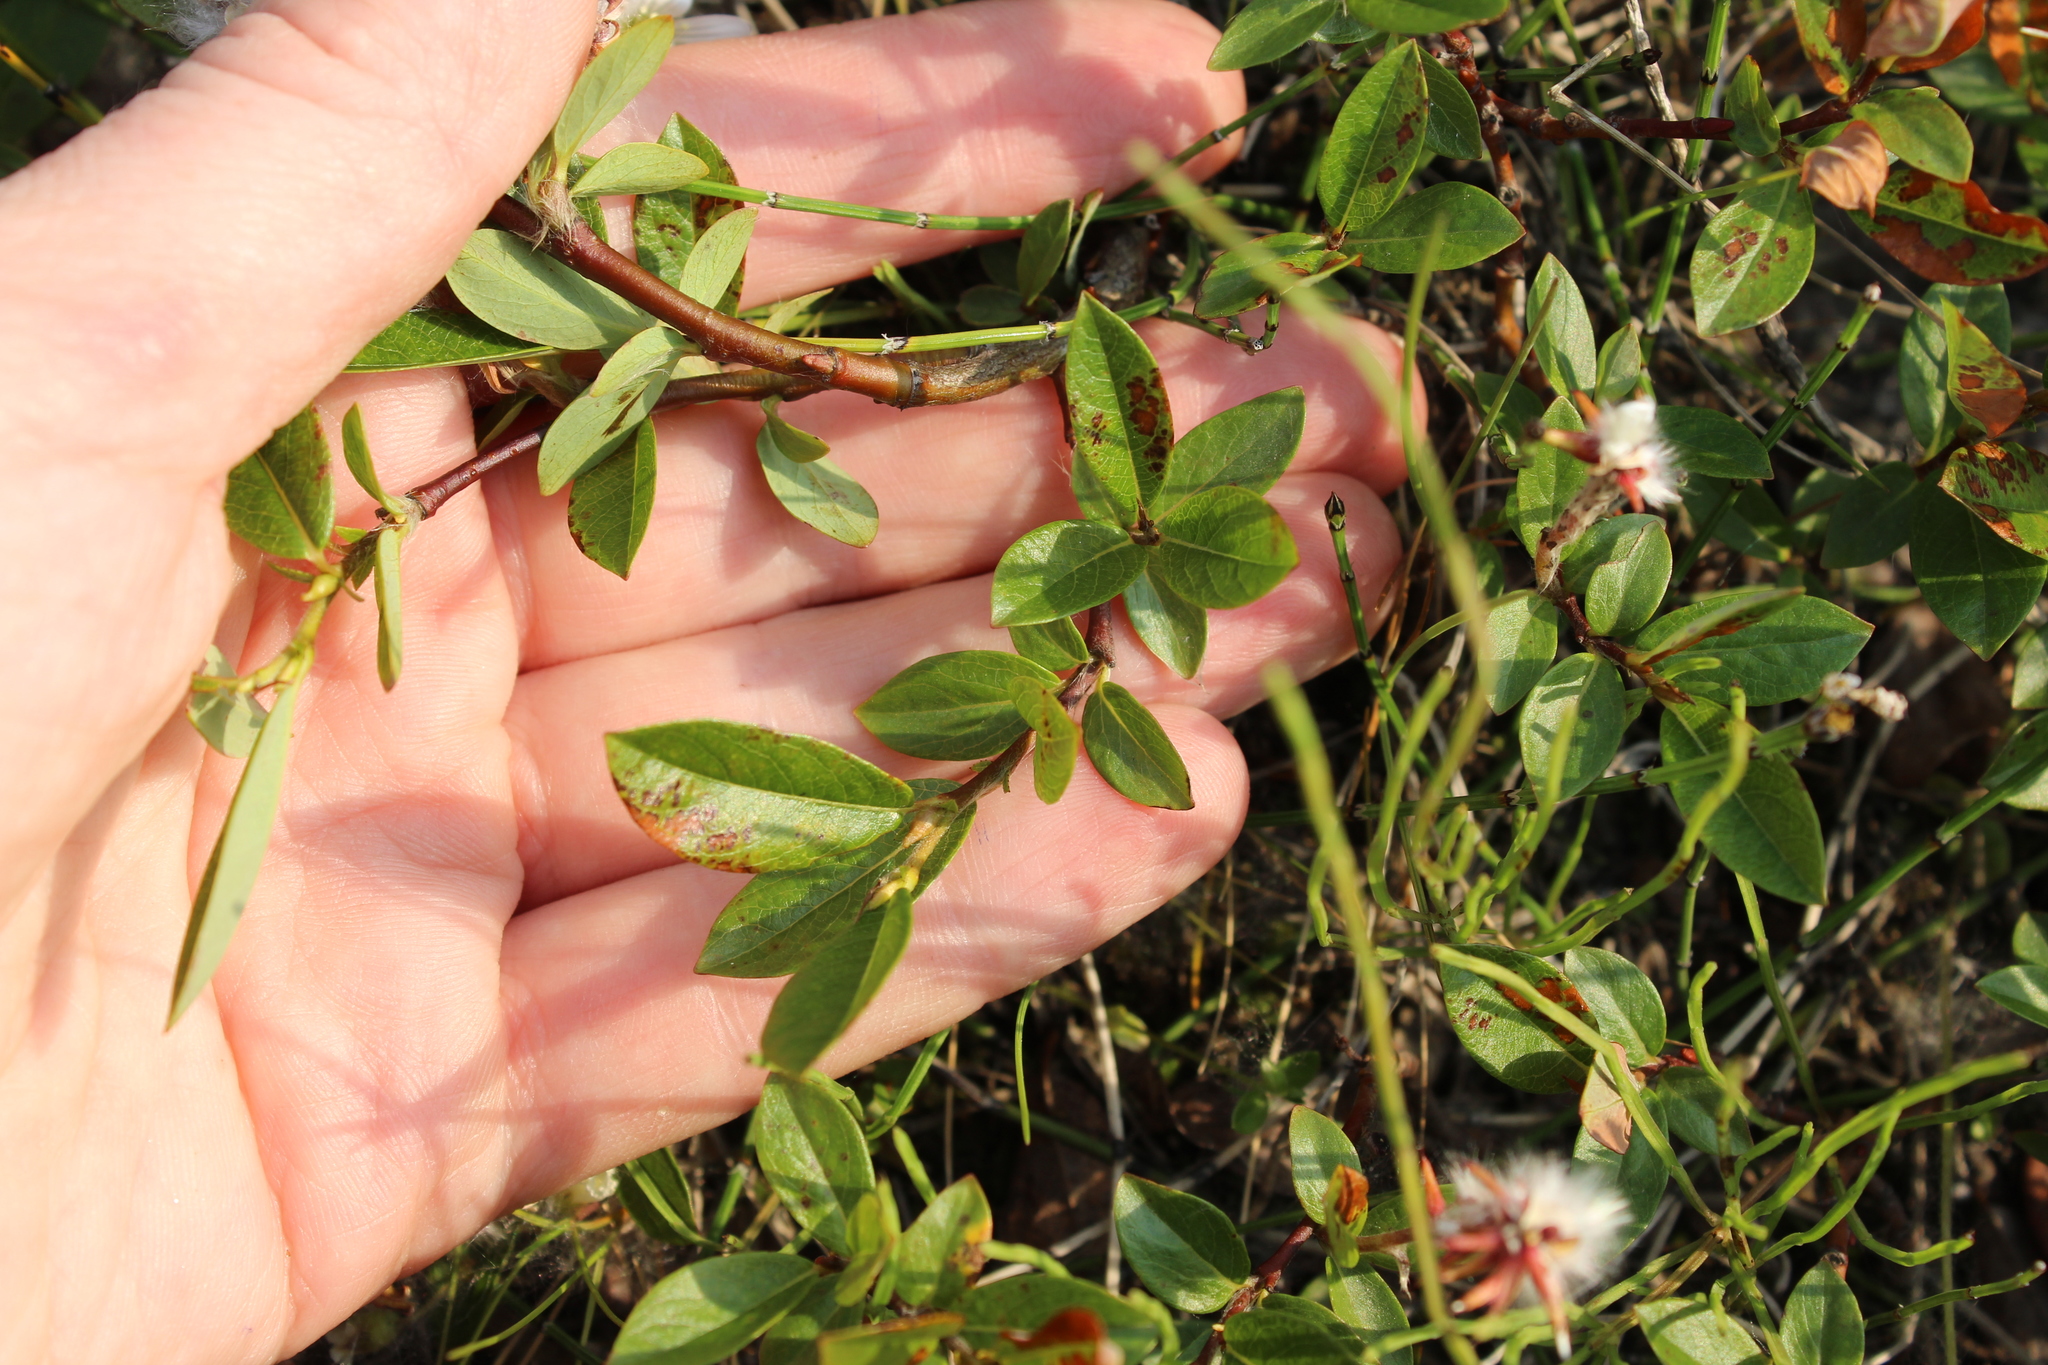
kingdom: Plantae
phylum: Tracheophyta
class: Magnoliopsida
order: Malpighiales
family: Salicaceae
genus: Salix
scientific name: Salix saxatilis
